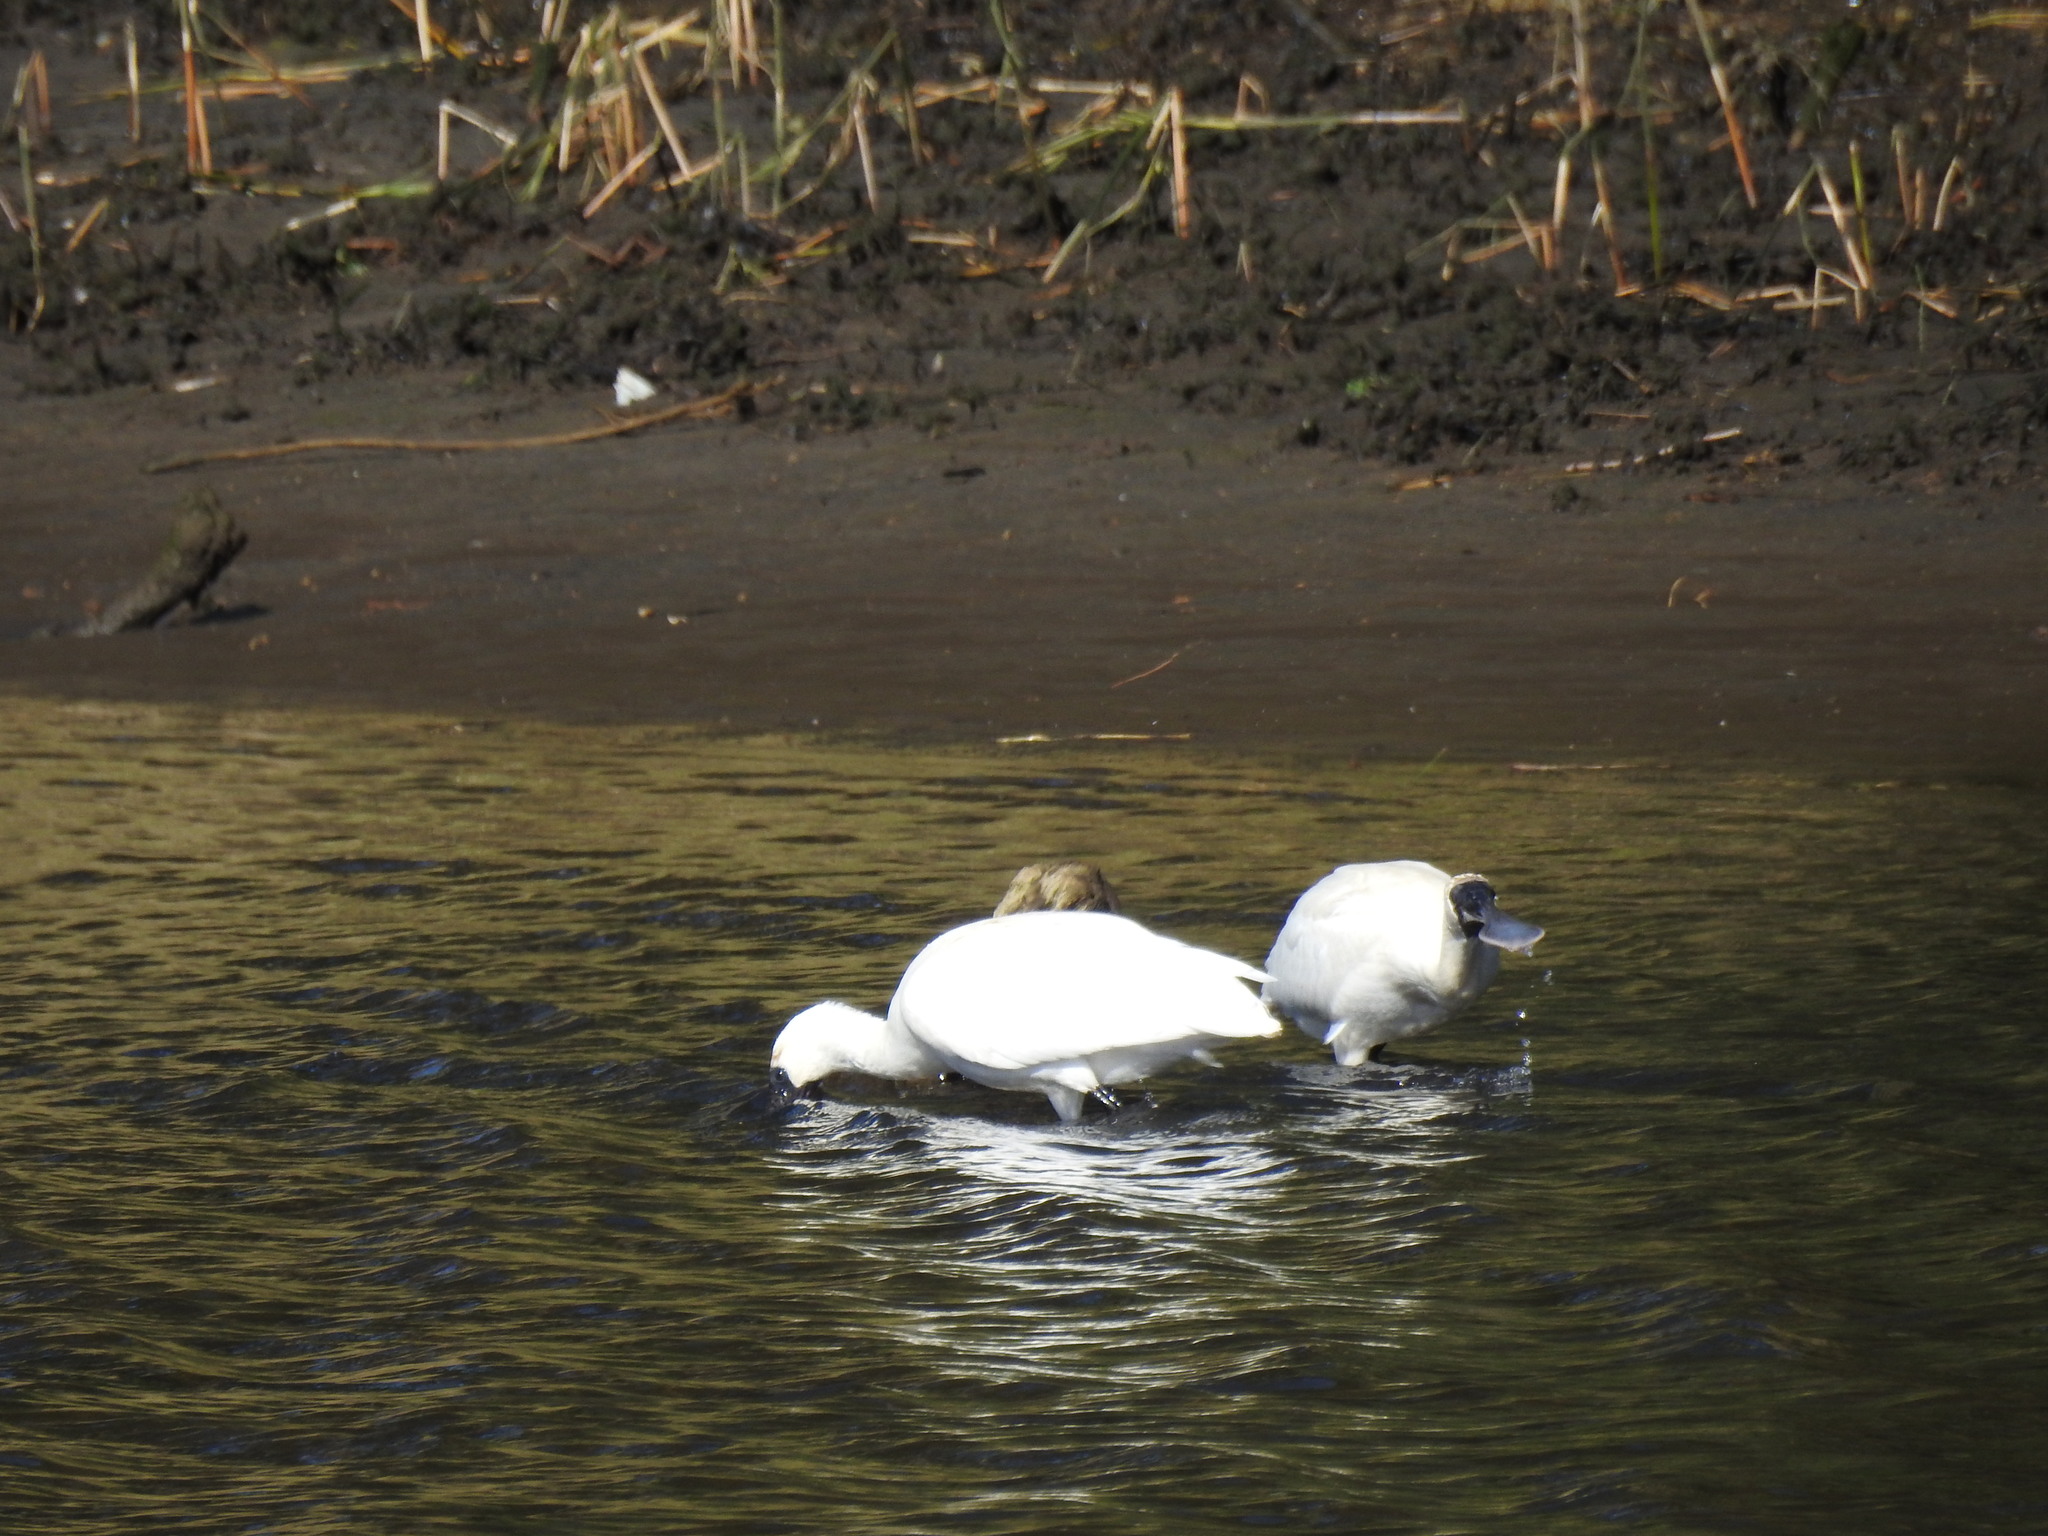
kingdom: Animalia
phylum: Chordata
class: Aves
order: Pelecaniformes
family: Threskiornithidae
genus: Platalea
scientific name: Platalea regia
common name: Royal spoonbill
